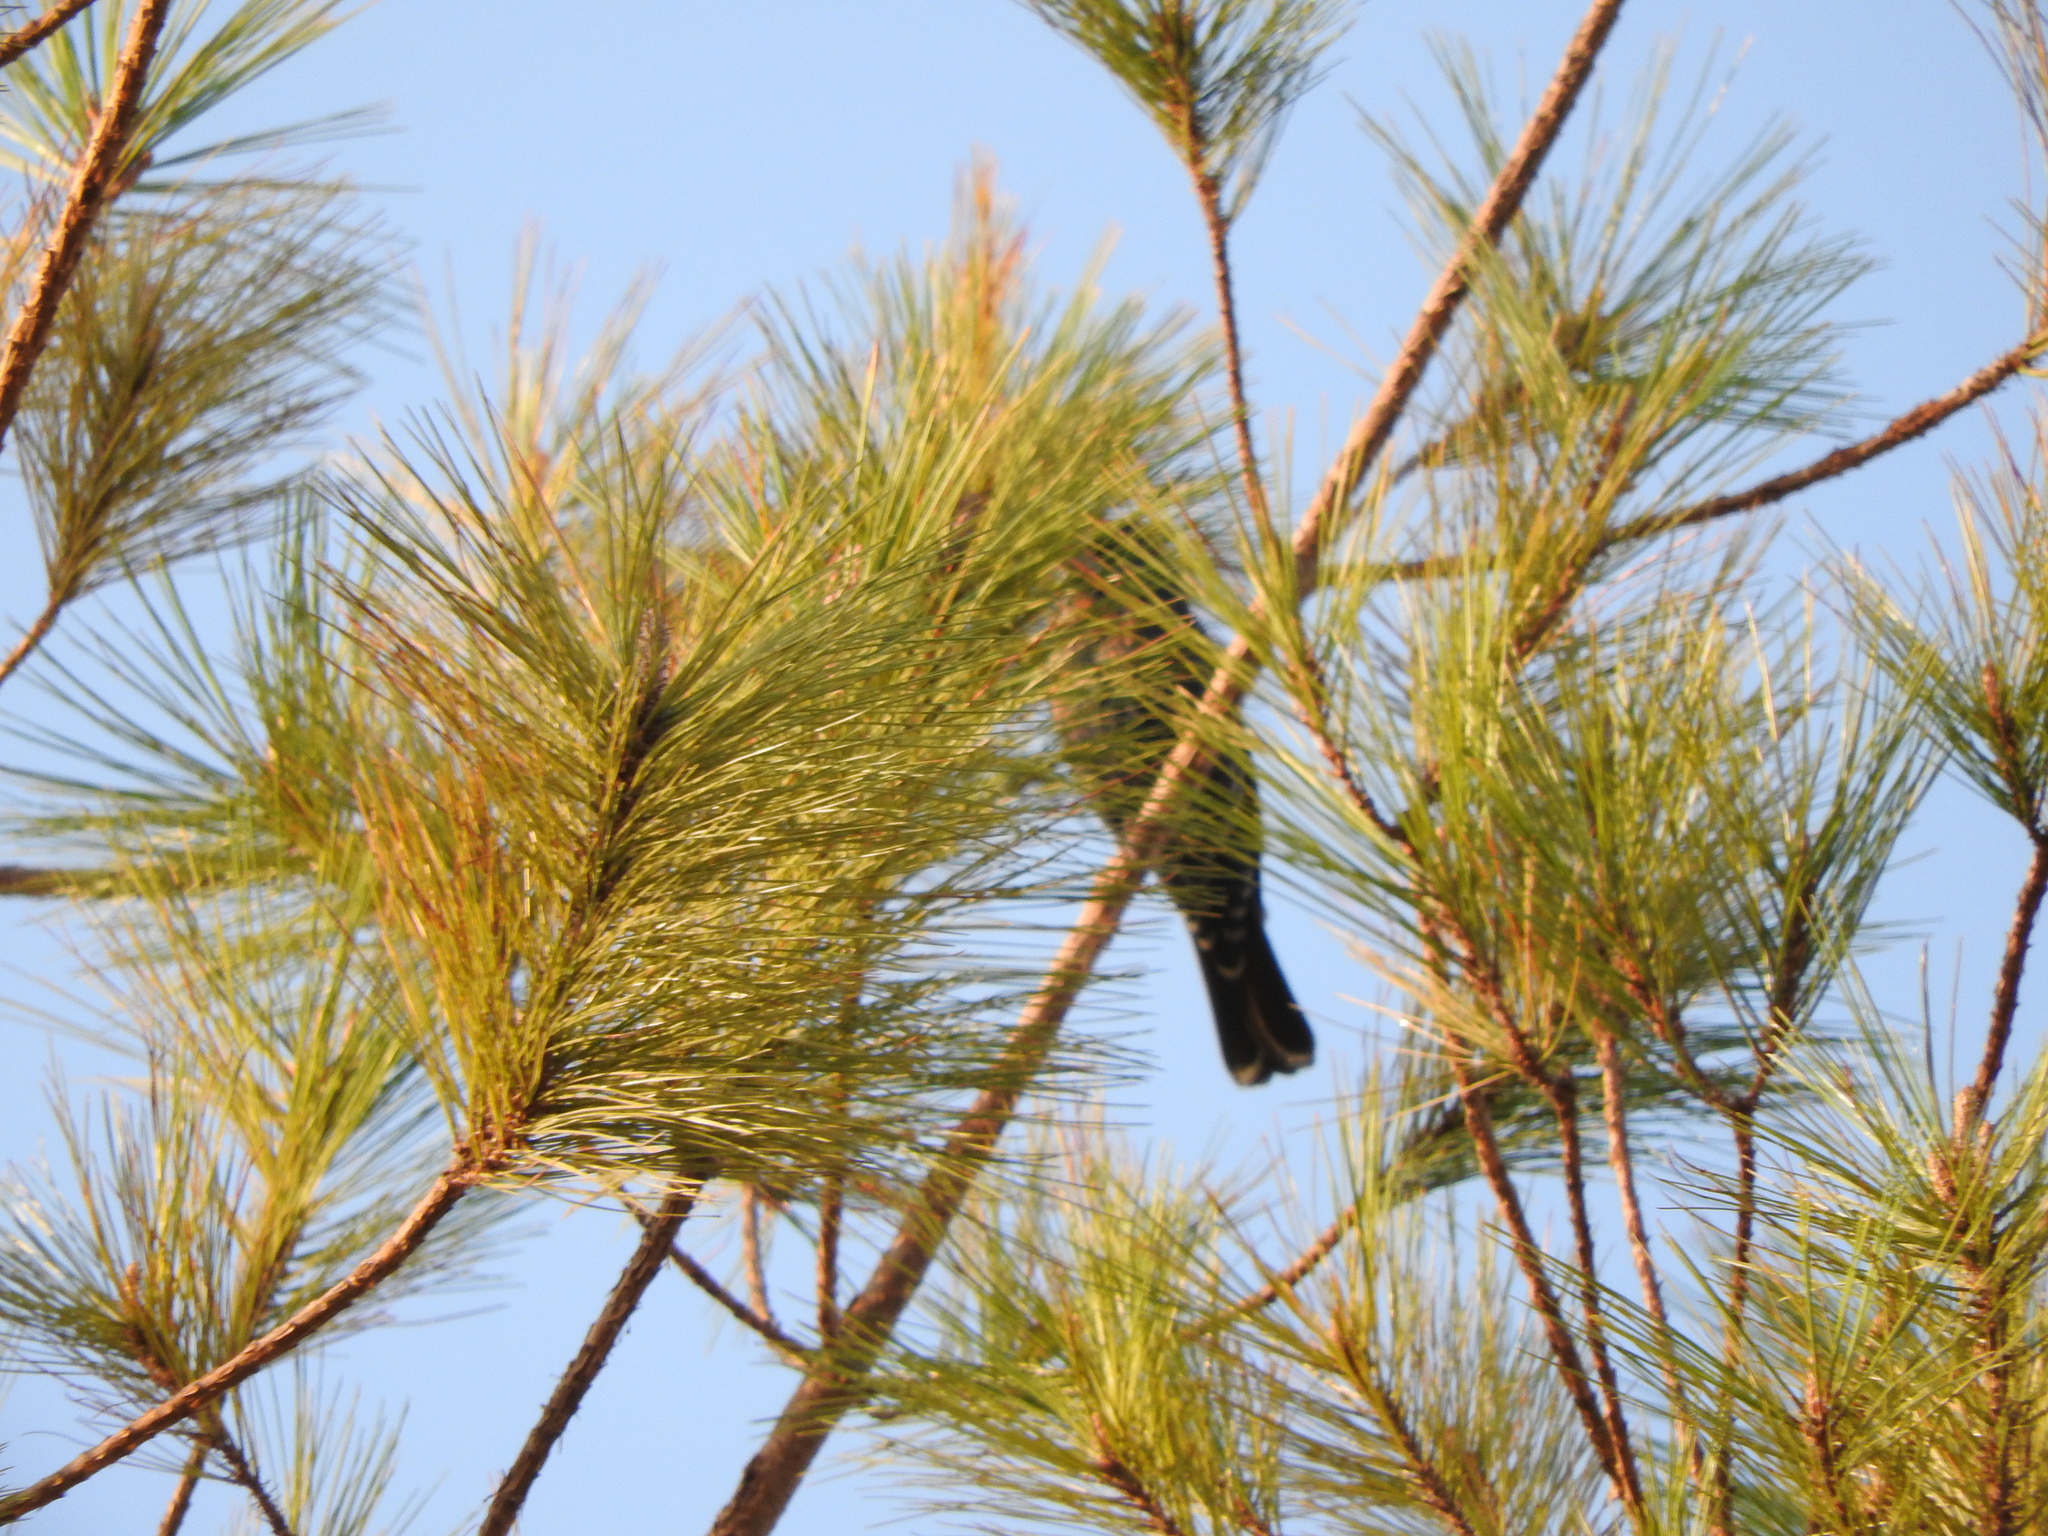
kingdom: Animalia
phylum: Chordata
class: Aves
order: Passeriformes
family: Cardinalidae
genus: Passerina
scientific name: Passerina caerulea
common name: Blue grosbeak
